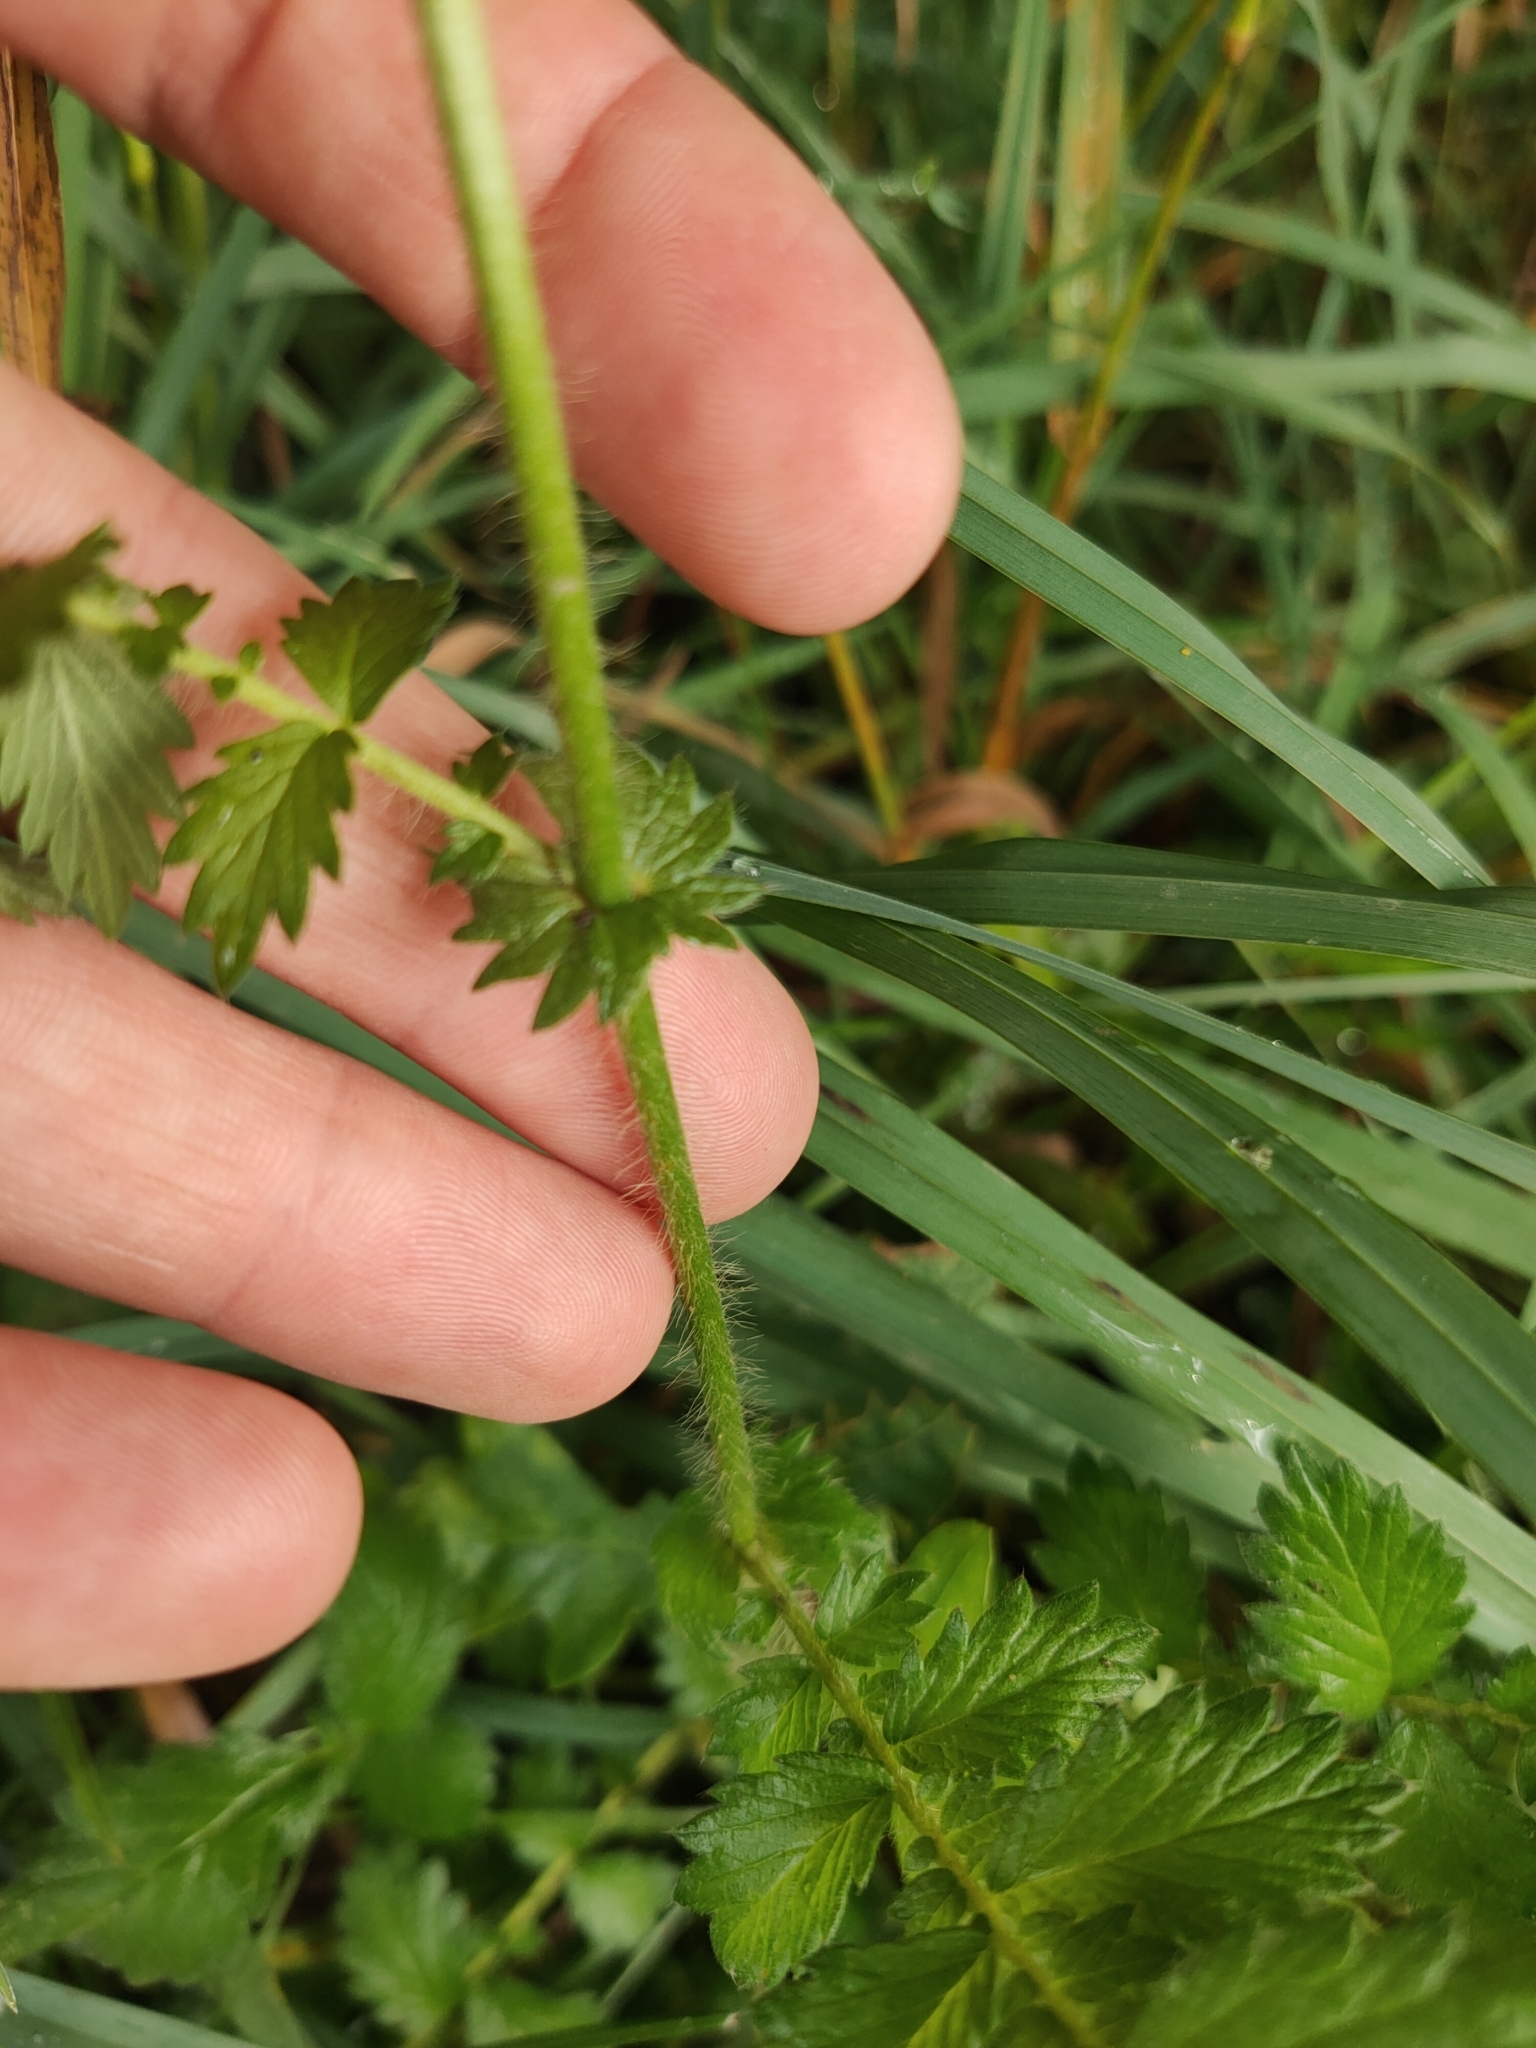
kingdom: Plantae
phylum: Tracheophyta
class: Magnoliopsida
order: Rosales
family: Rosaceae
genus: Agrimonia
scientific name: Agrimonia eupatoria
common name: Agrimony
